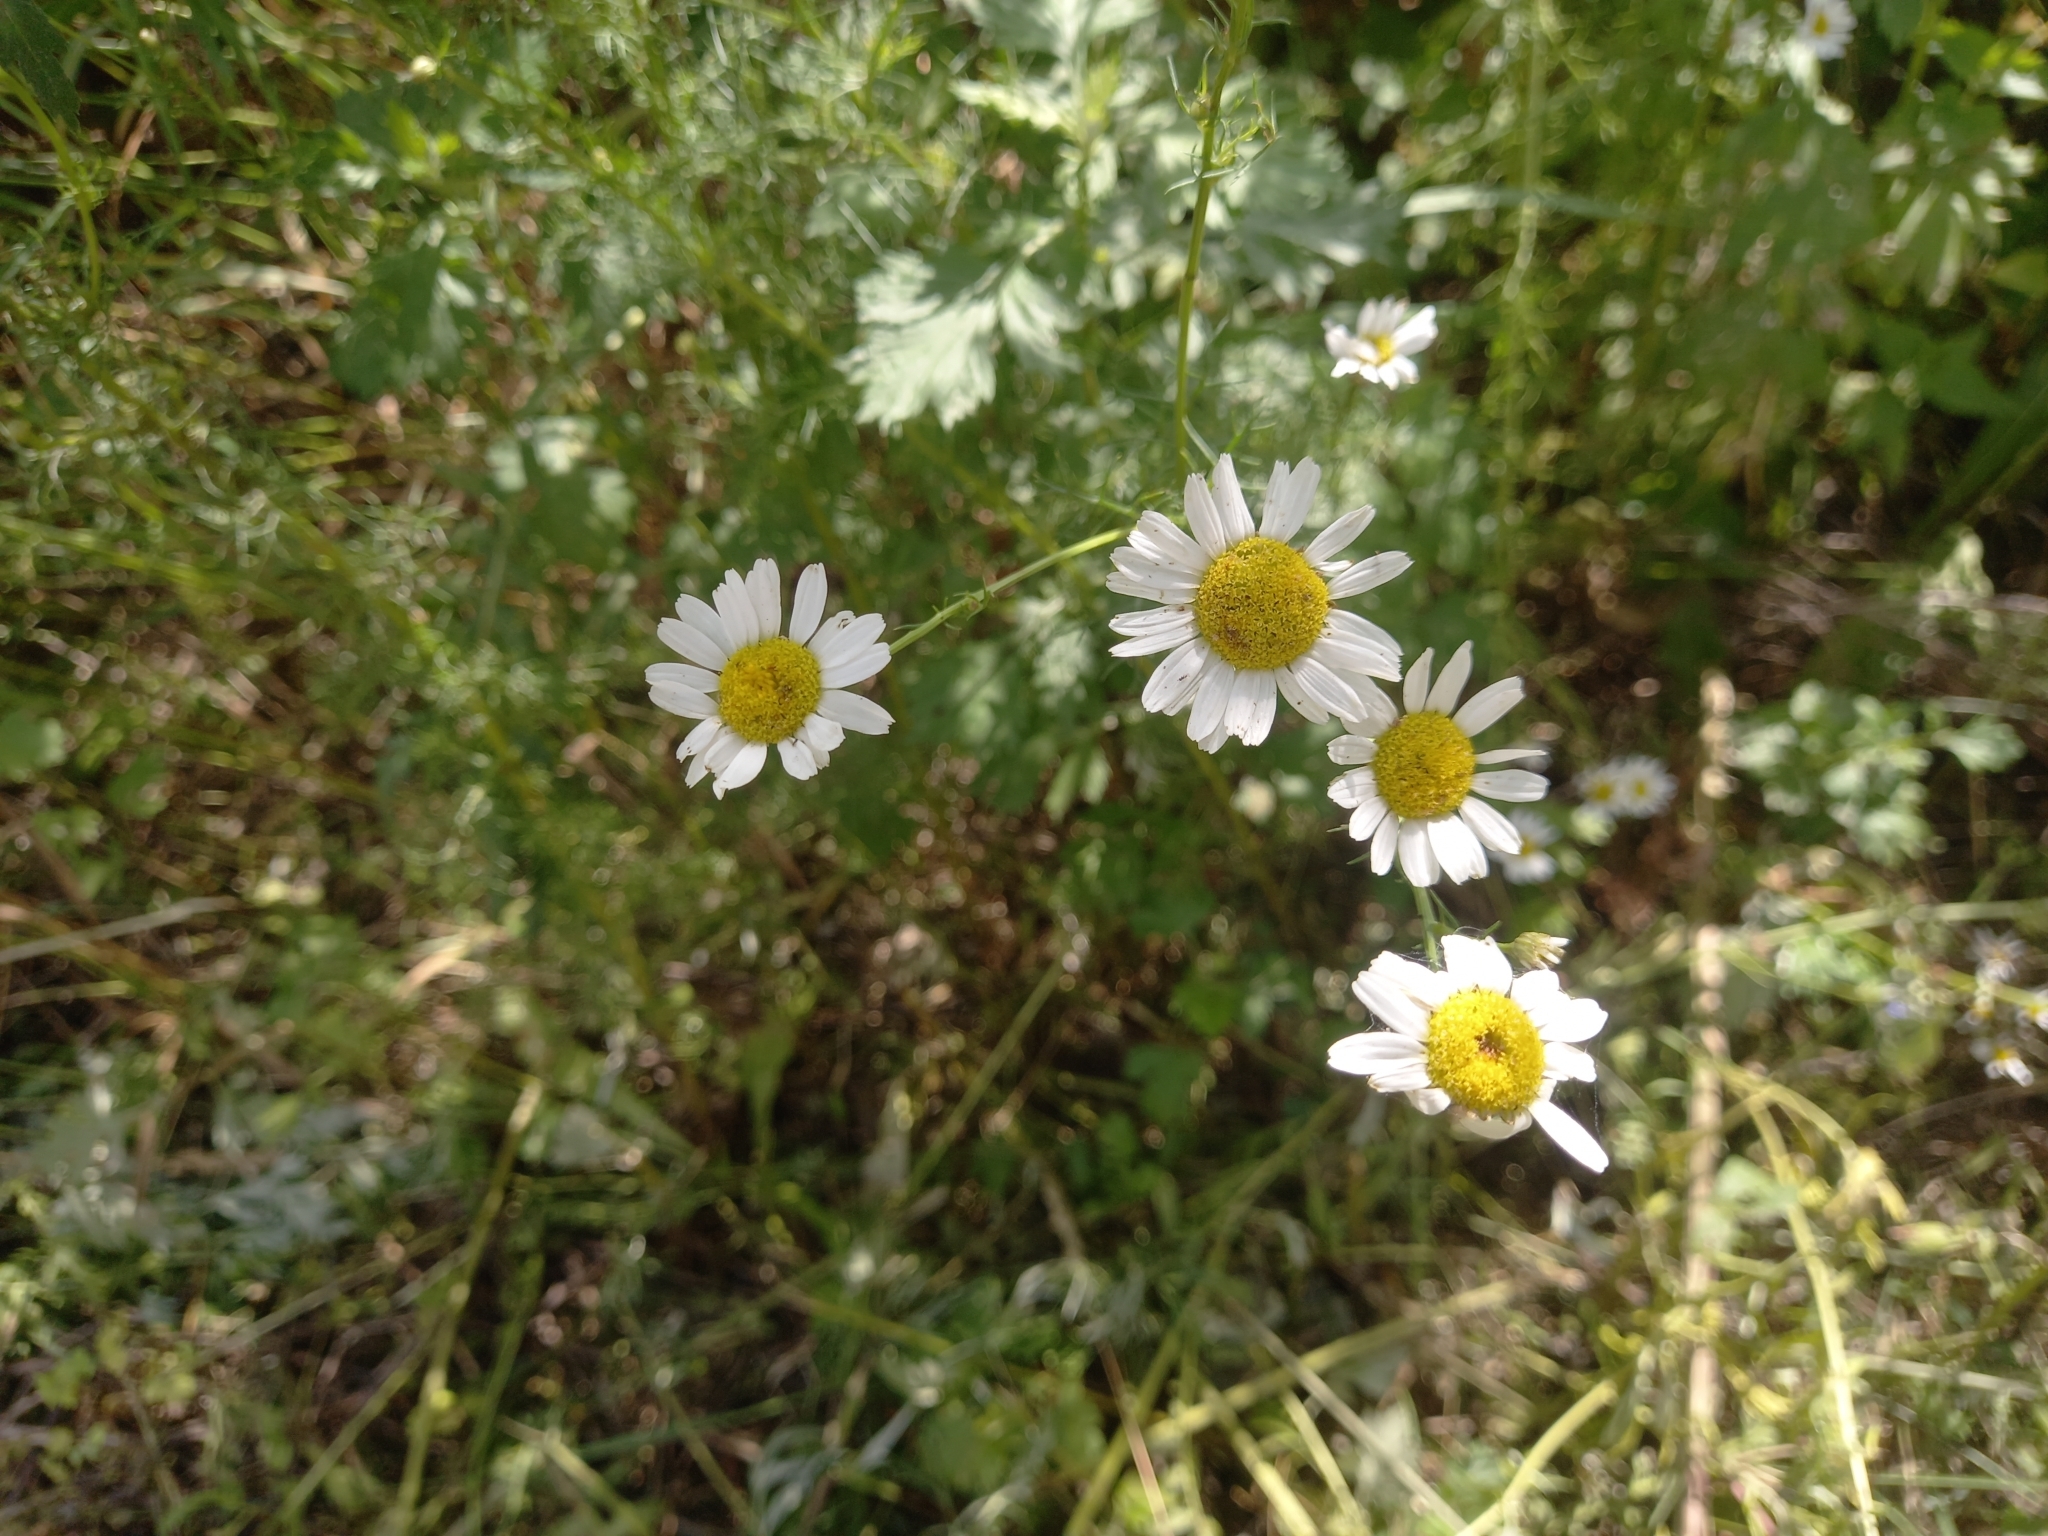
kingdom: Plantae
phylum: Tracheophyta
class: Magnoliopsida
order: Asterales
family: Asteraceae
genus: Tripleurospermum
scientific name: Tripleurospermum inodorum
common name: Scentless mayweed
